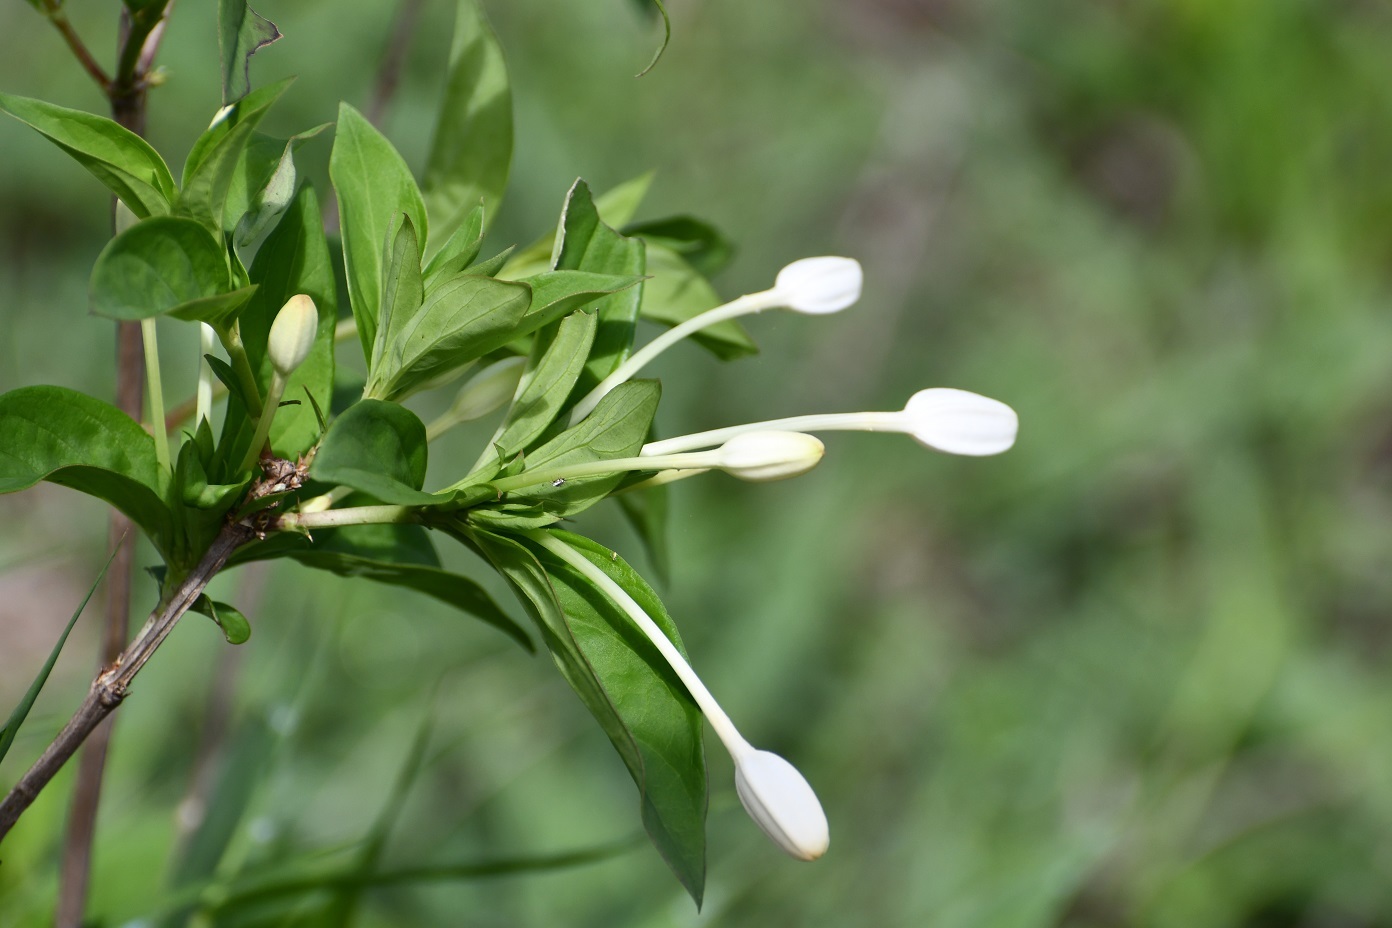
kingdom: Plantae
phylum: Tracheophyta
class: Magnoliopsida
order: Gentianales
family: Rubiaceae
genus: Bouvardia
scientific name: Bouvardia longiflora
